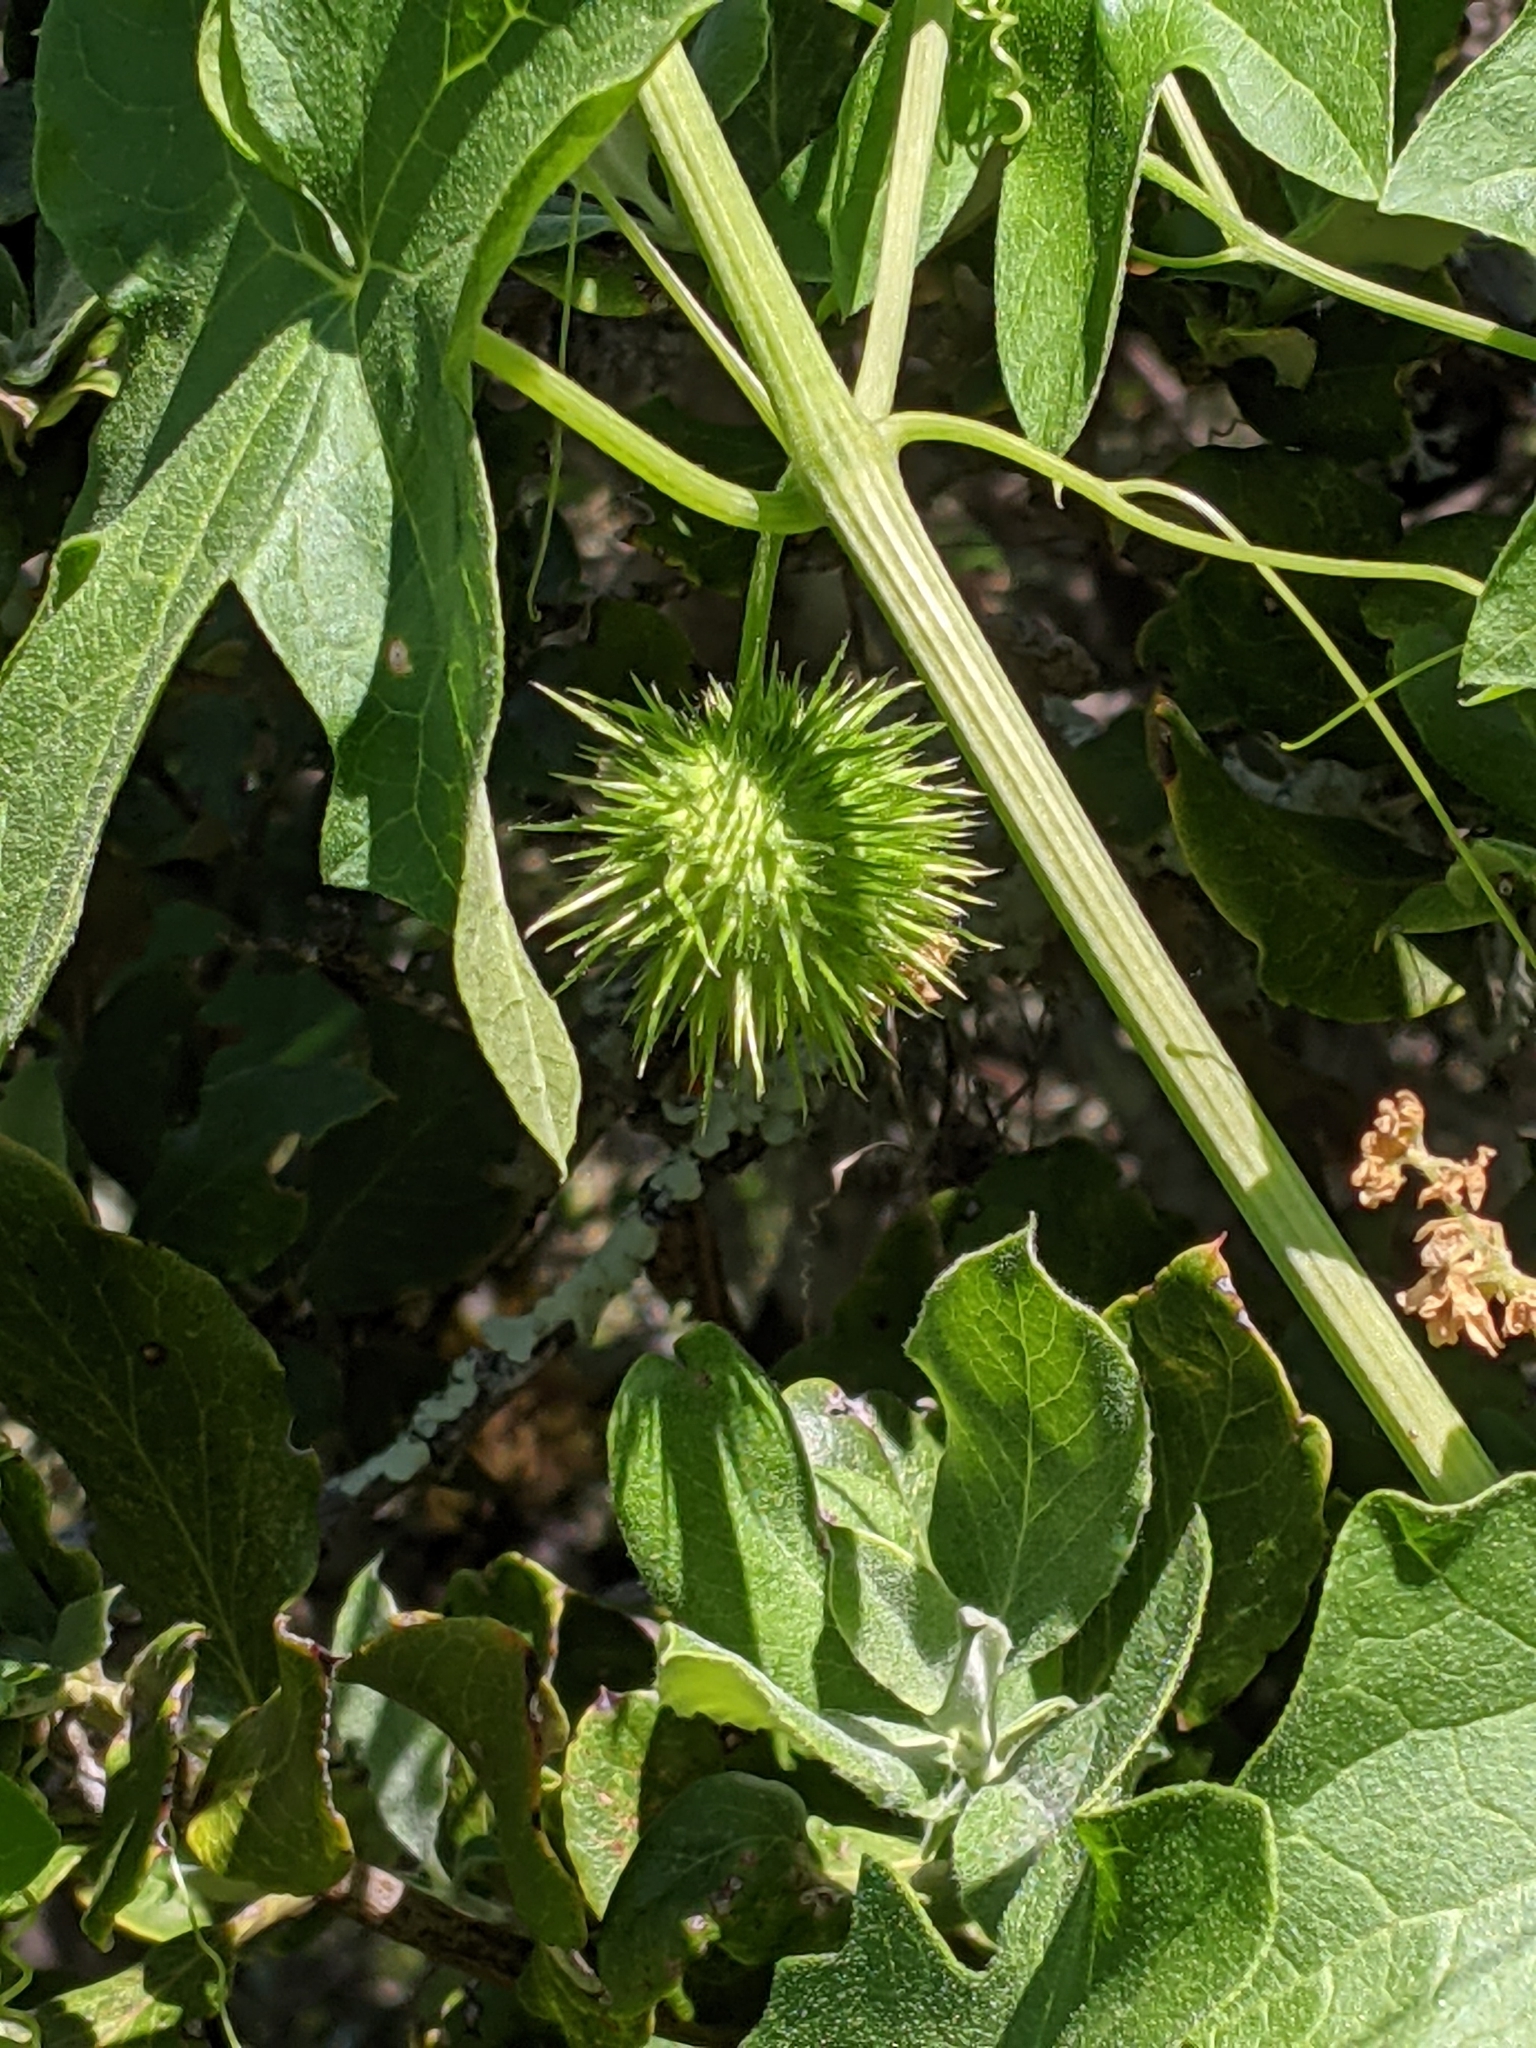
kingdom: Plantae
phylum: Tracheophyta
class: Magnoliopsida
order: Cucurbitales
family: Cucurbitaceae
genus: Marah
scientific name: Marah fabacea
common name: California manroot
